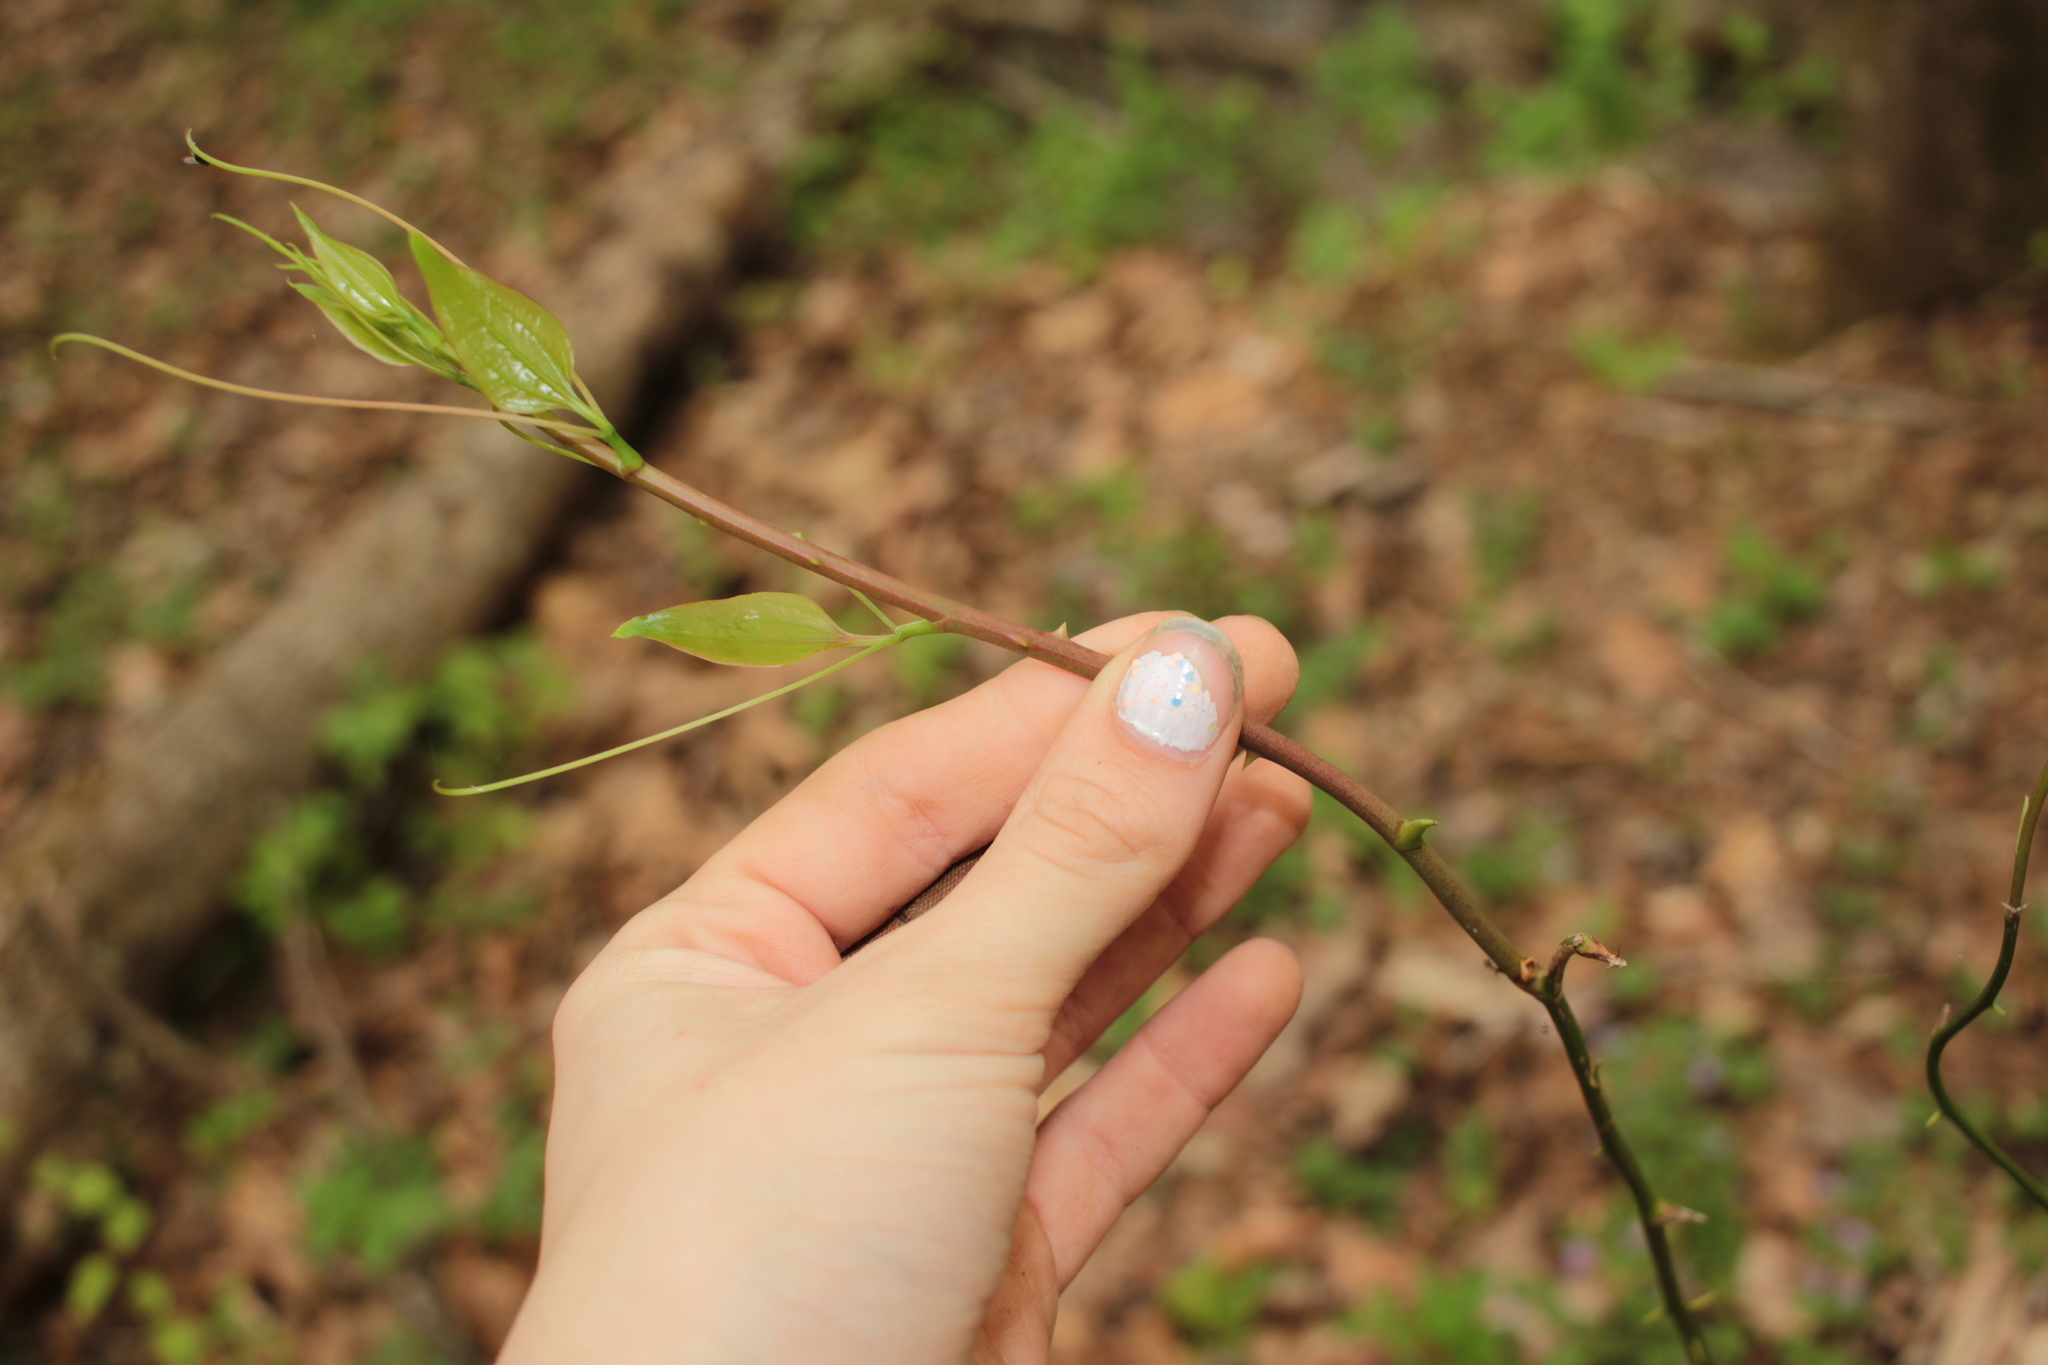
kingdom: Plantae
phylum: Tracheophyta
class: Liliopsida
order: Liliales
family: Smilacaceae
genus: Smilax
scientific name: Smilax
